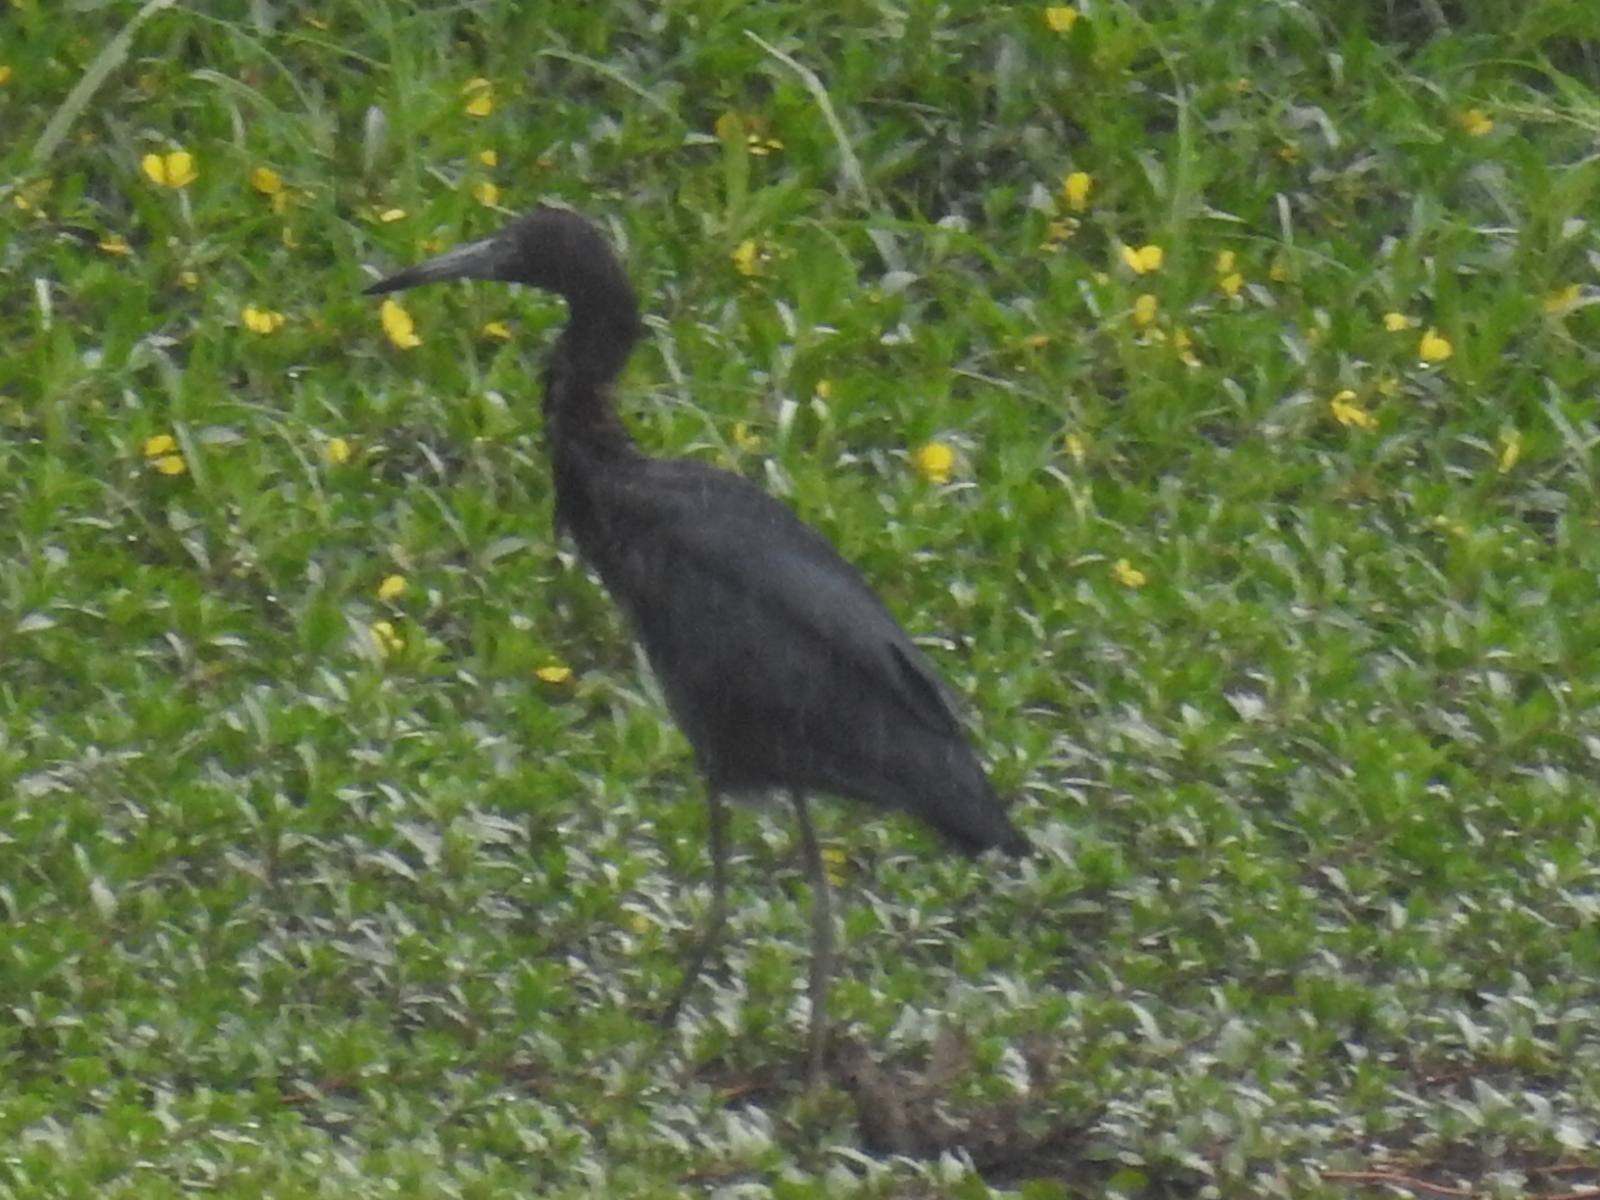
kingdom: Animalia
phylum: Chordata
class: Aves
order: Pelecaniformes
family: Ardeidae
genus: Egretta
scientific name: Egretta caerulea
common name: Little blue heron
